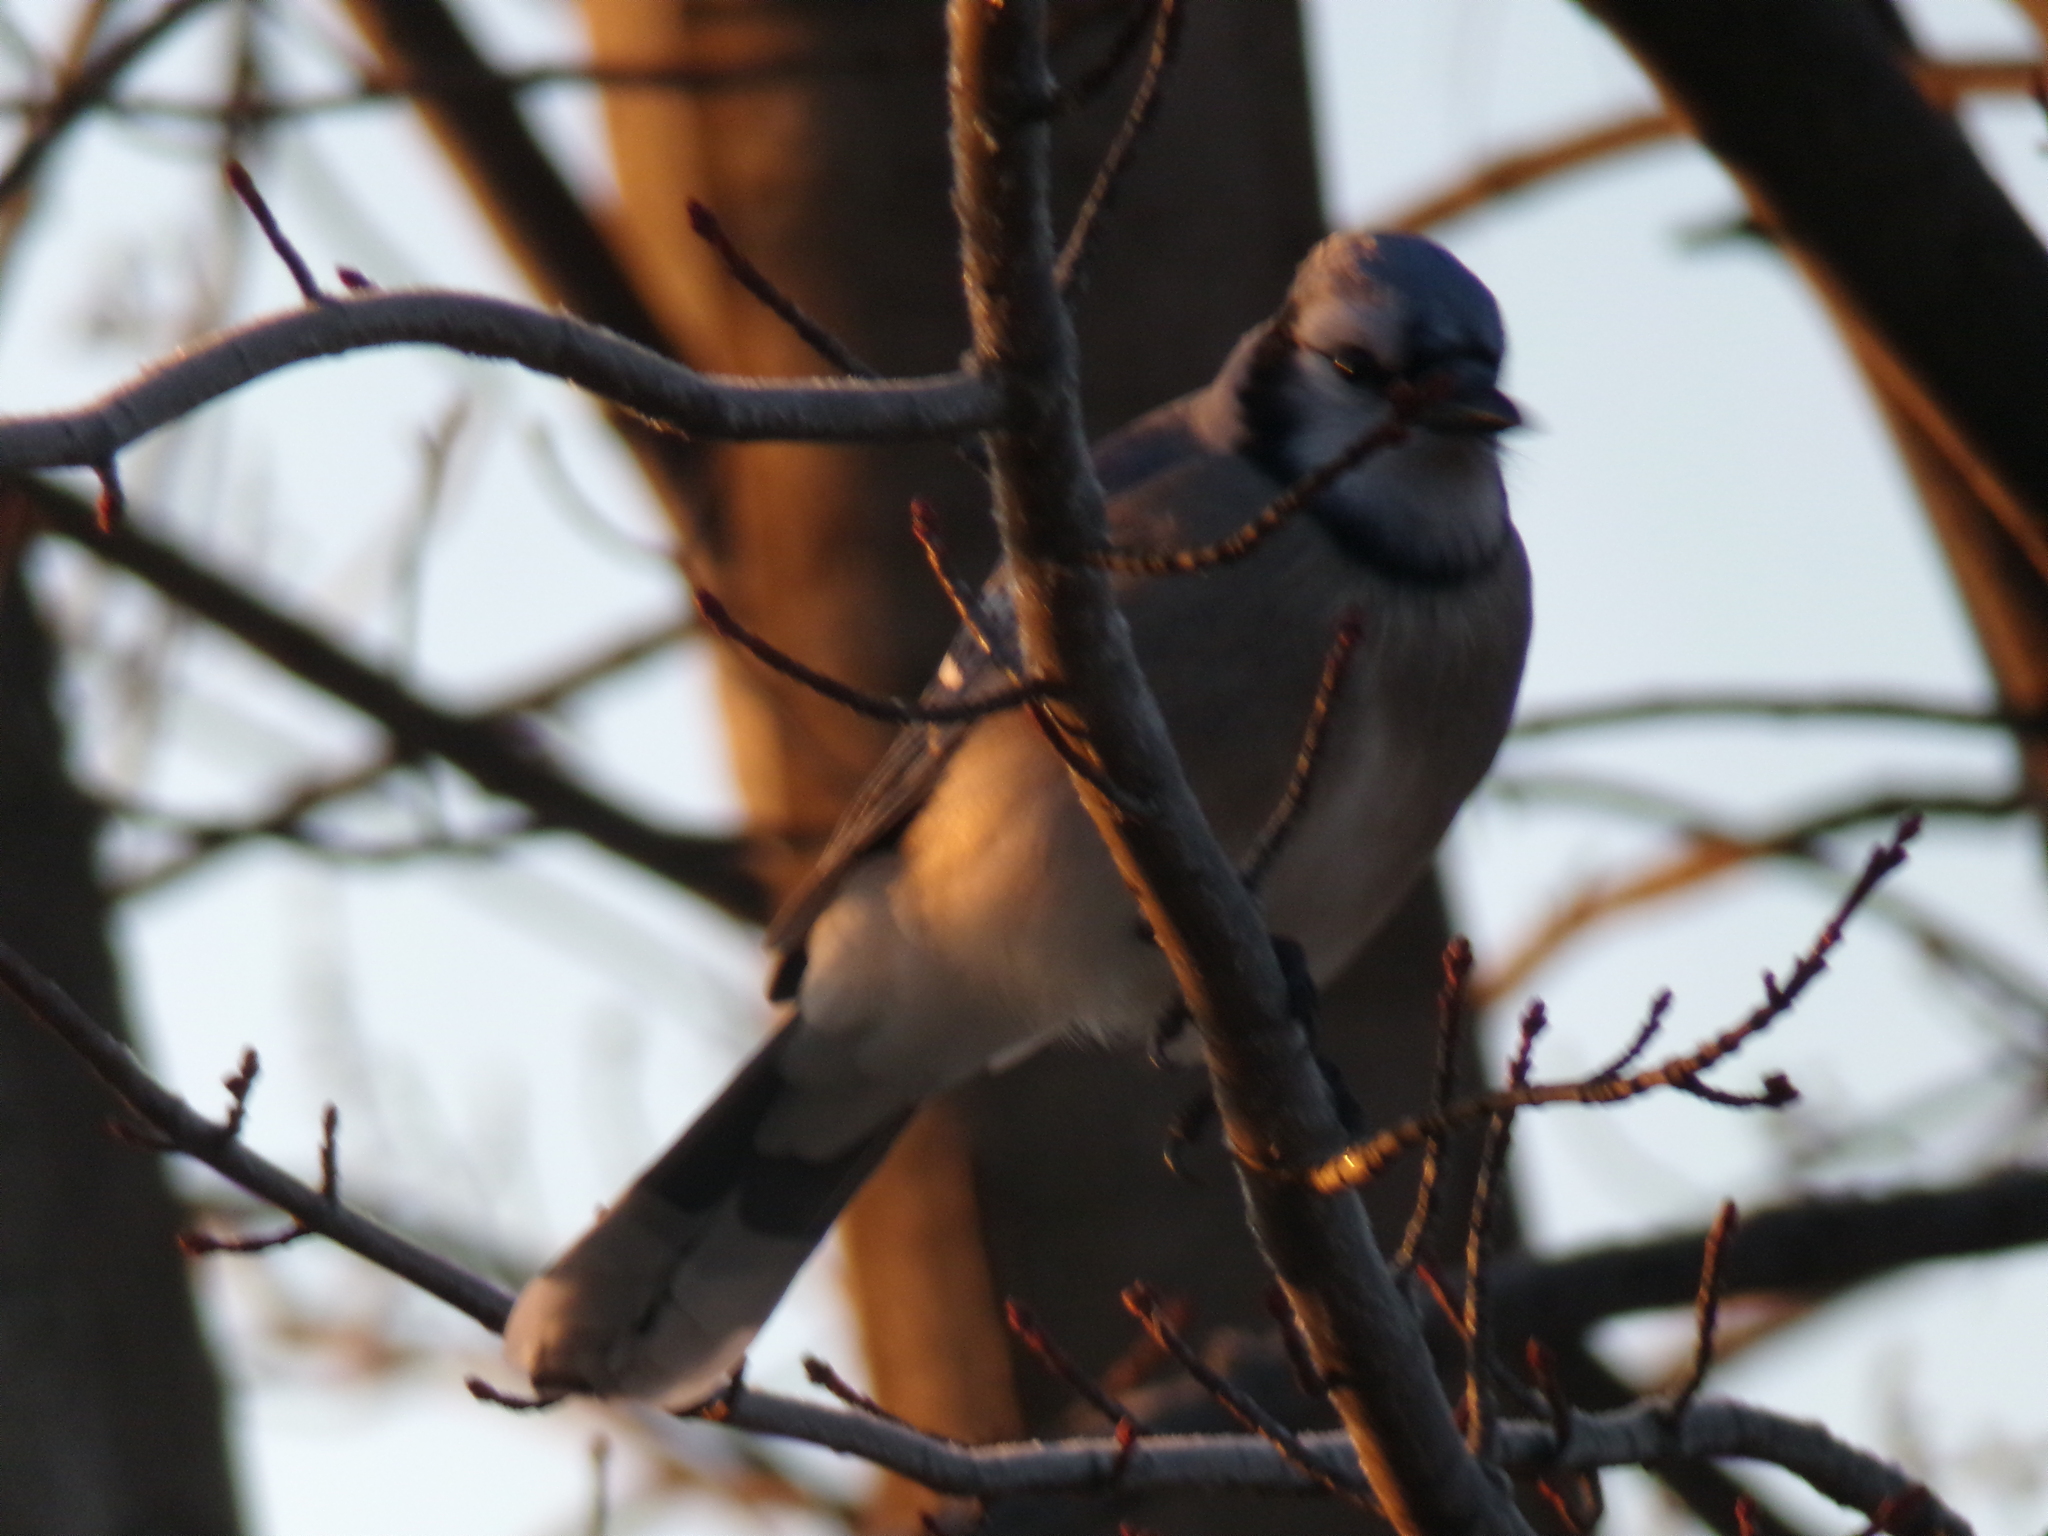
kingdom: Animalia
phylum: Chordata
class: Aves
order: Passeriformes
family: Corvidae
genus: Cyanocitta
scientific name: Cyanocitta cristata
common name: Blue jay
